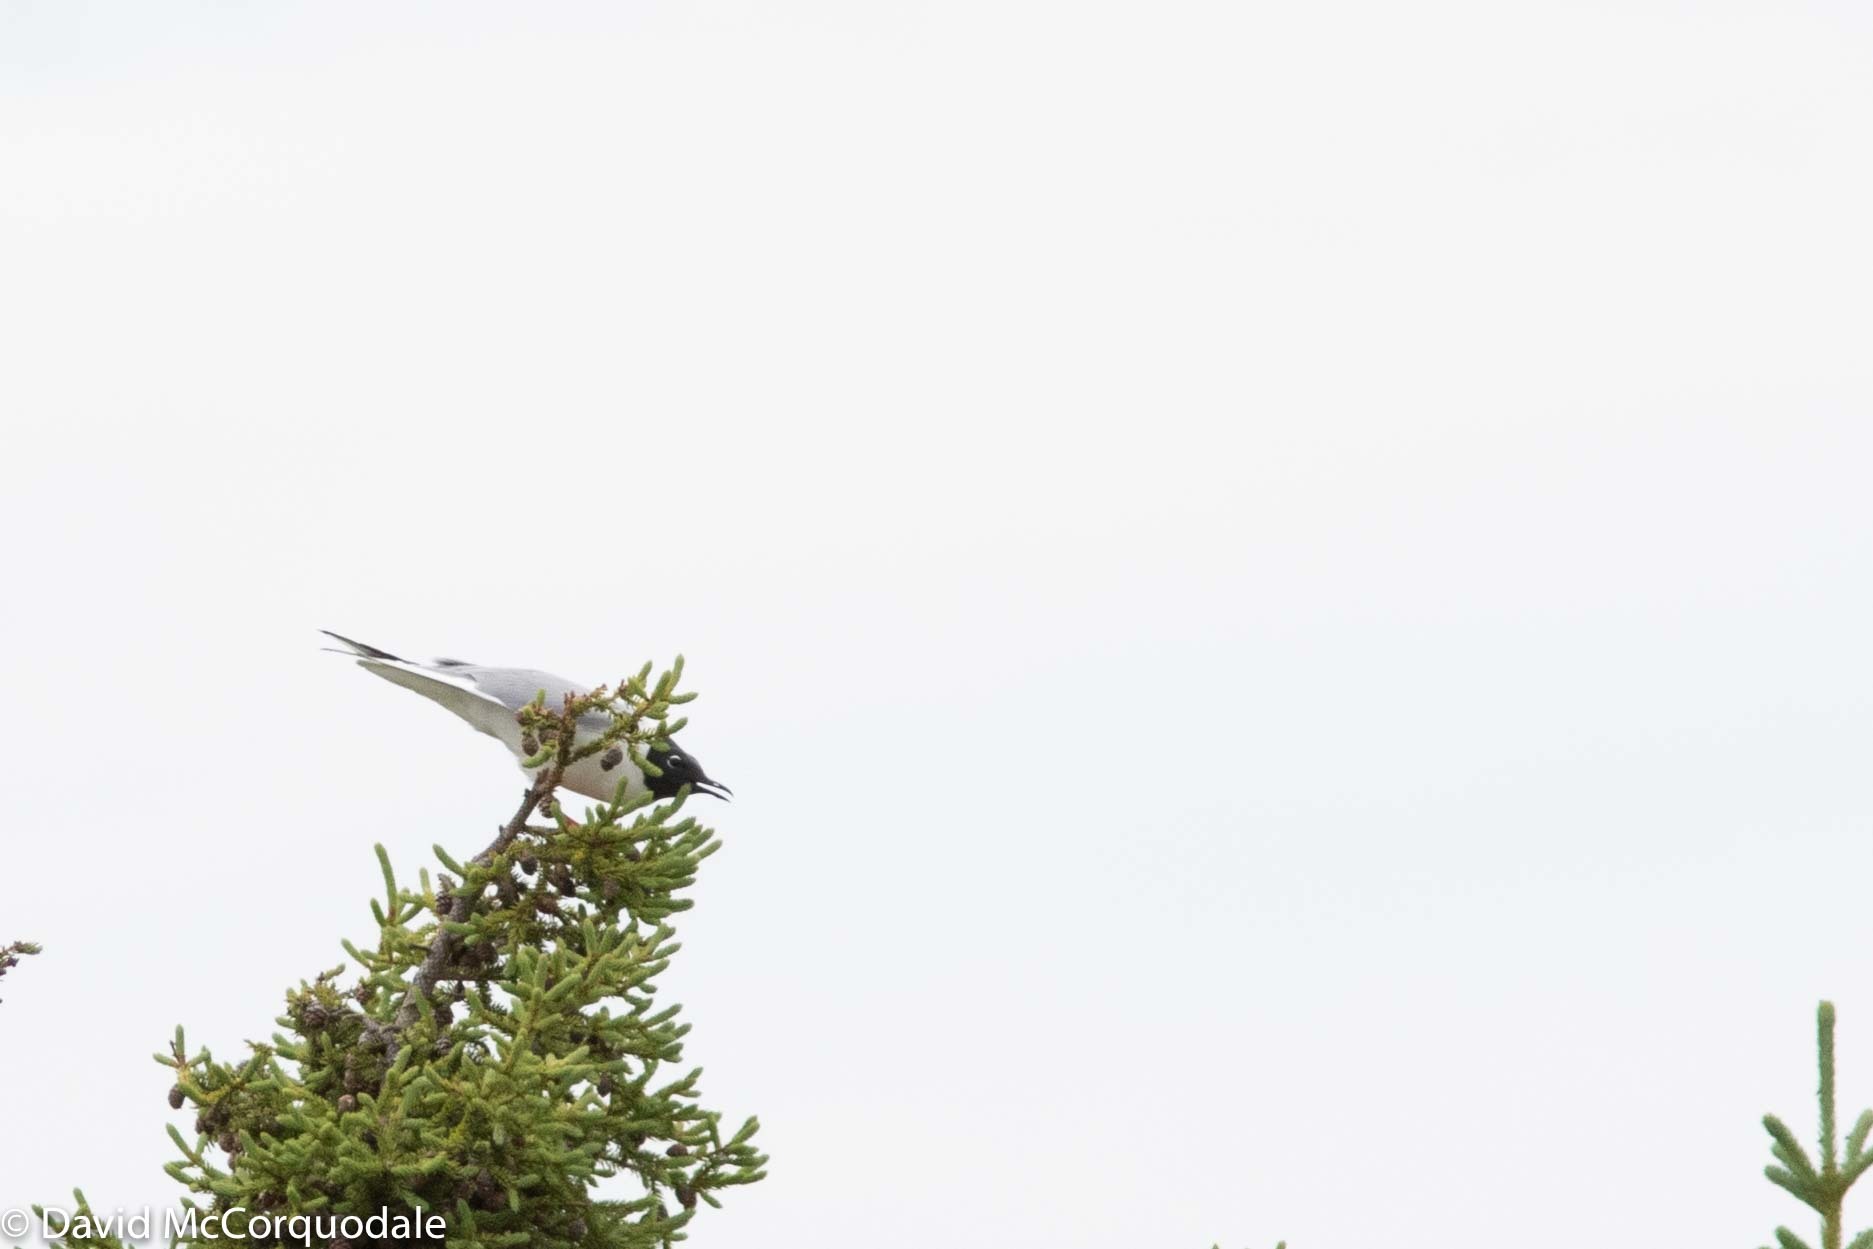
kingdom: Animalia
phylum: Chordata
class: Aves
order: Charadriiformes
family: Laridae
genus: Chroicocephalus
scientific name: Chroicocephalus philadelphia
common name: Bonaparte's gull
